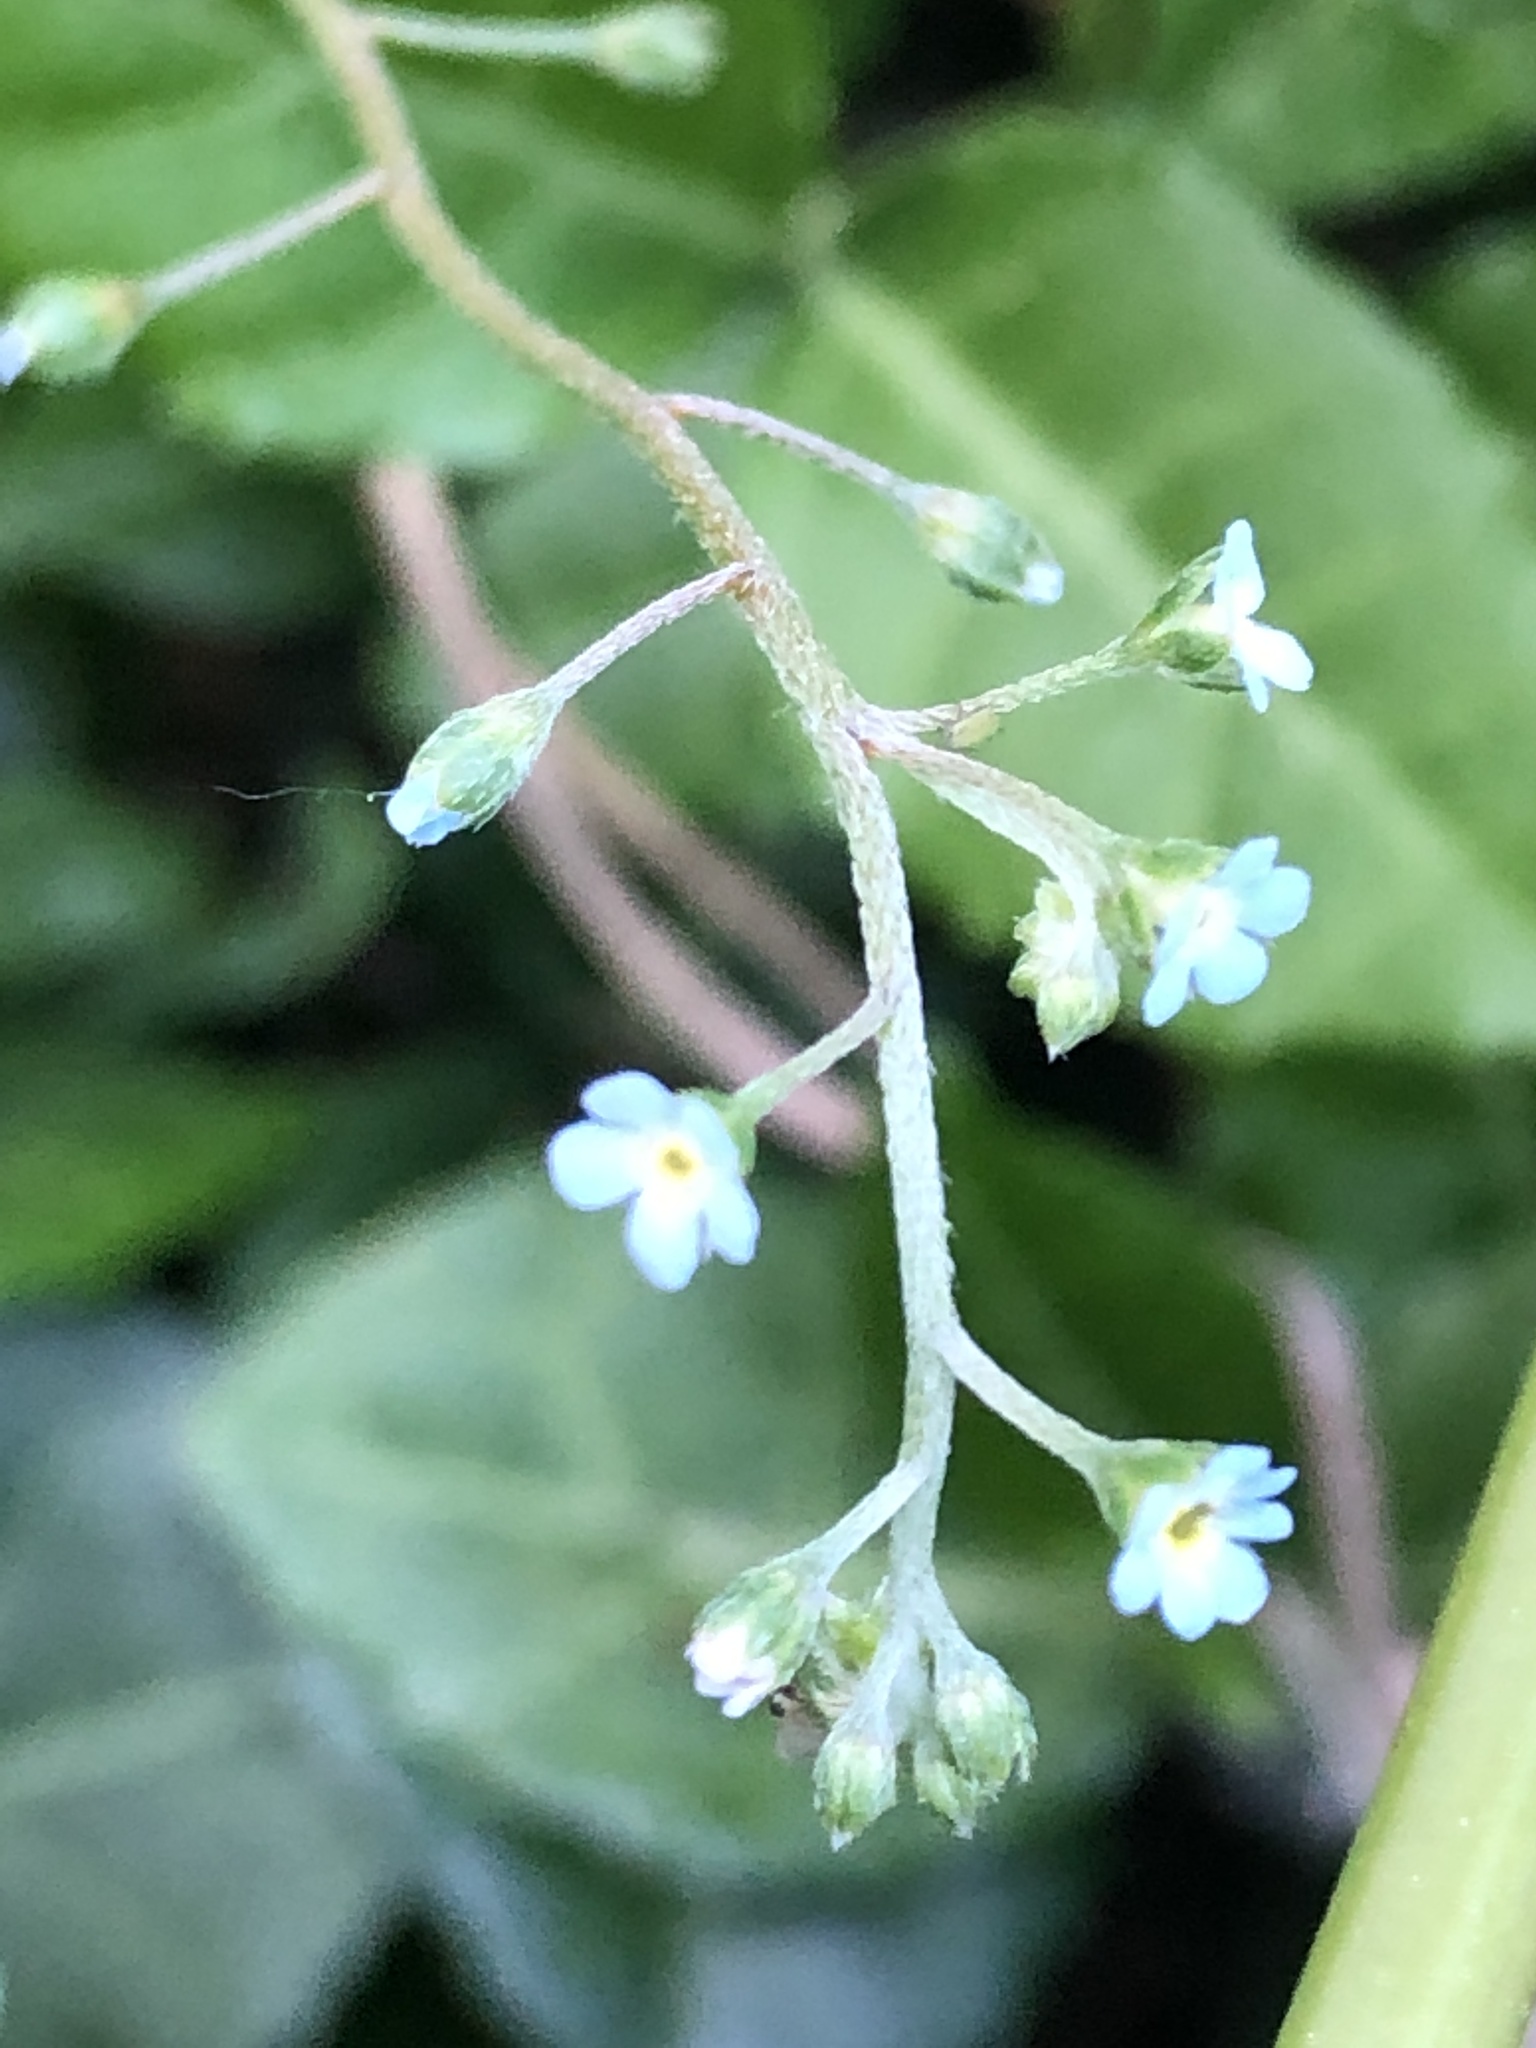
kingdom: Plantae
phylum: Tracheophyta
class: Magnoliopsida
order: Boraginales
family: Boraginaceae
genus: Trigonotis
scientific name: Trigonotis peduncularis
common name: Cucumber herb
